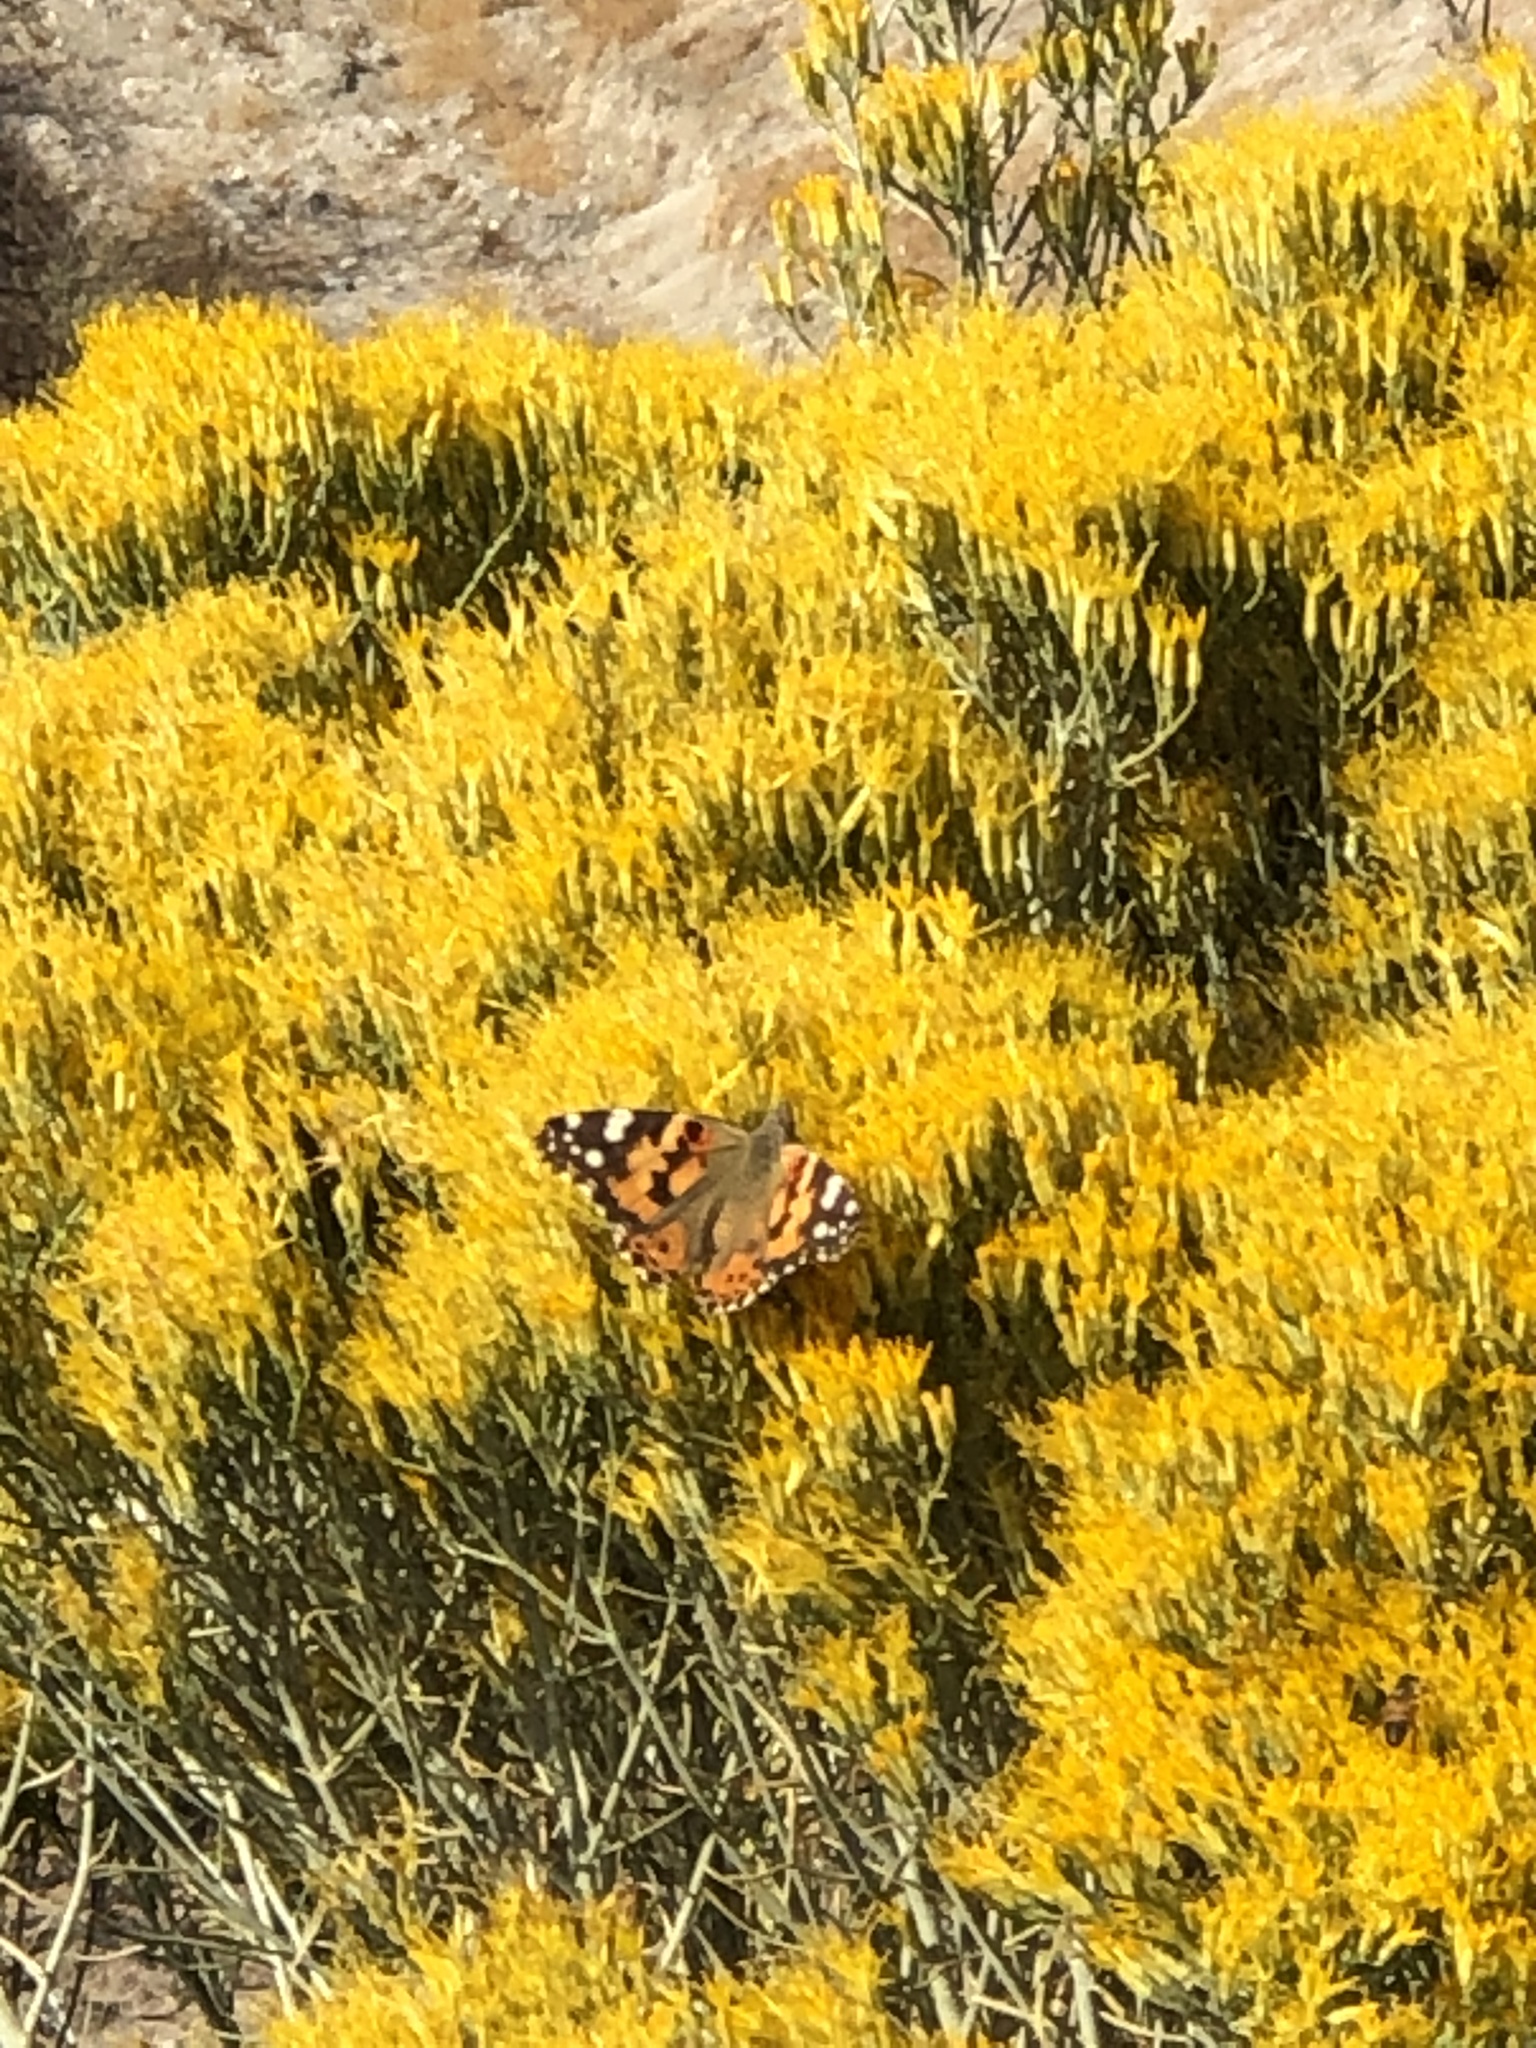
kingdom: Animalia
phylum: Arthropoda
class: Insecta
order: Lepidoptera
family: Nymphalidae
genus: Vanessa
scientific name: Vanessa cardui
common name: Painted lady
